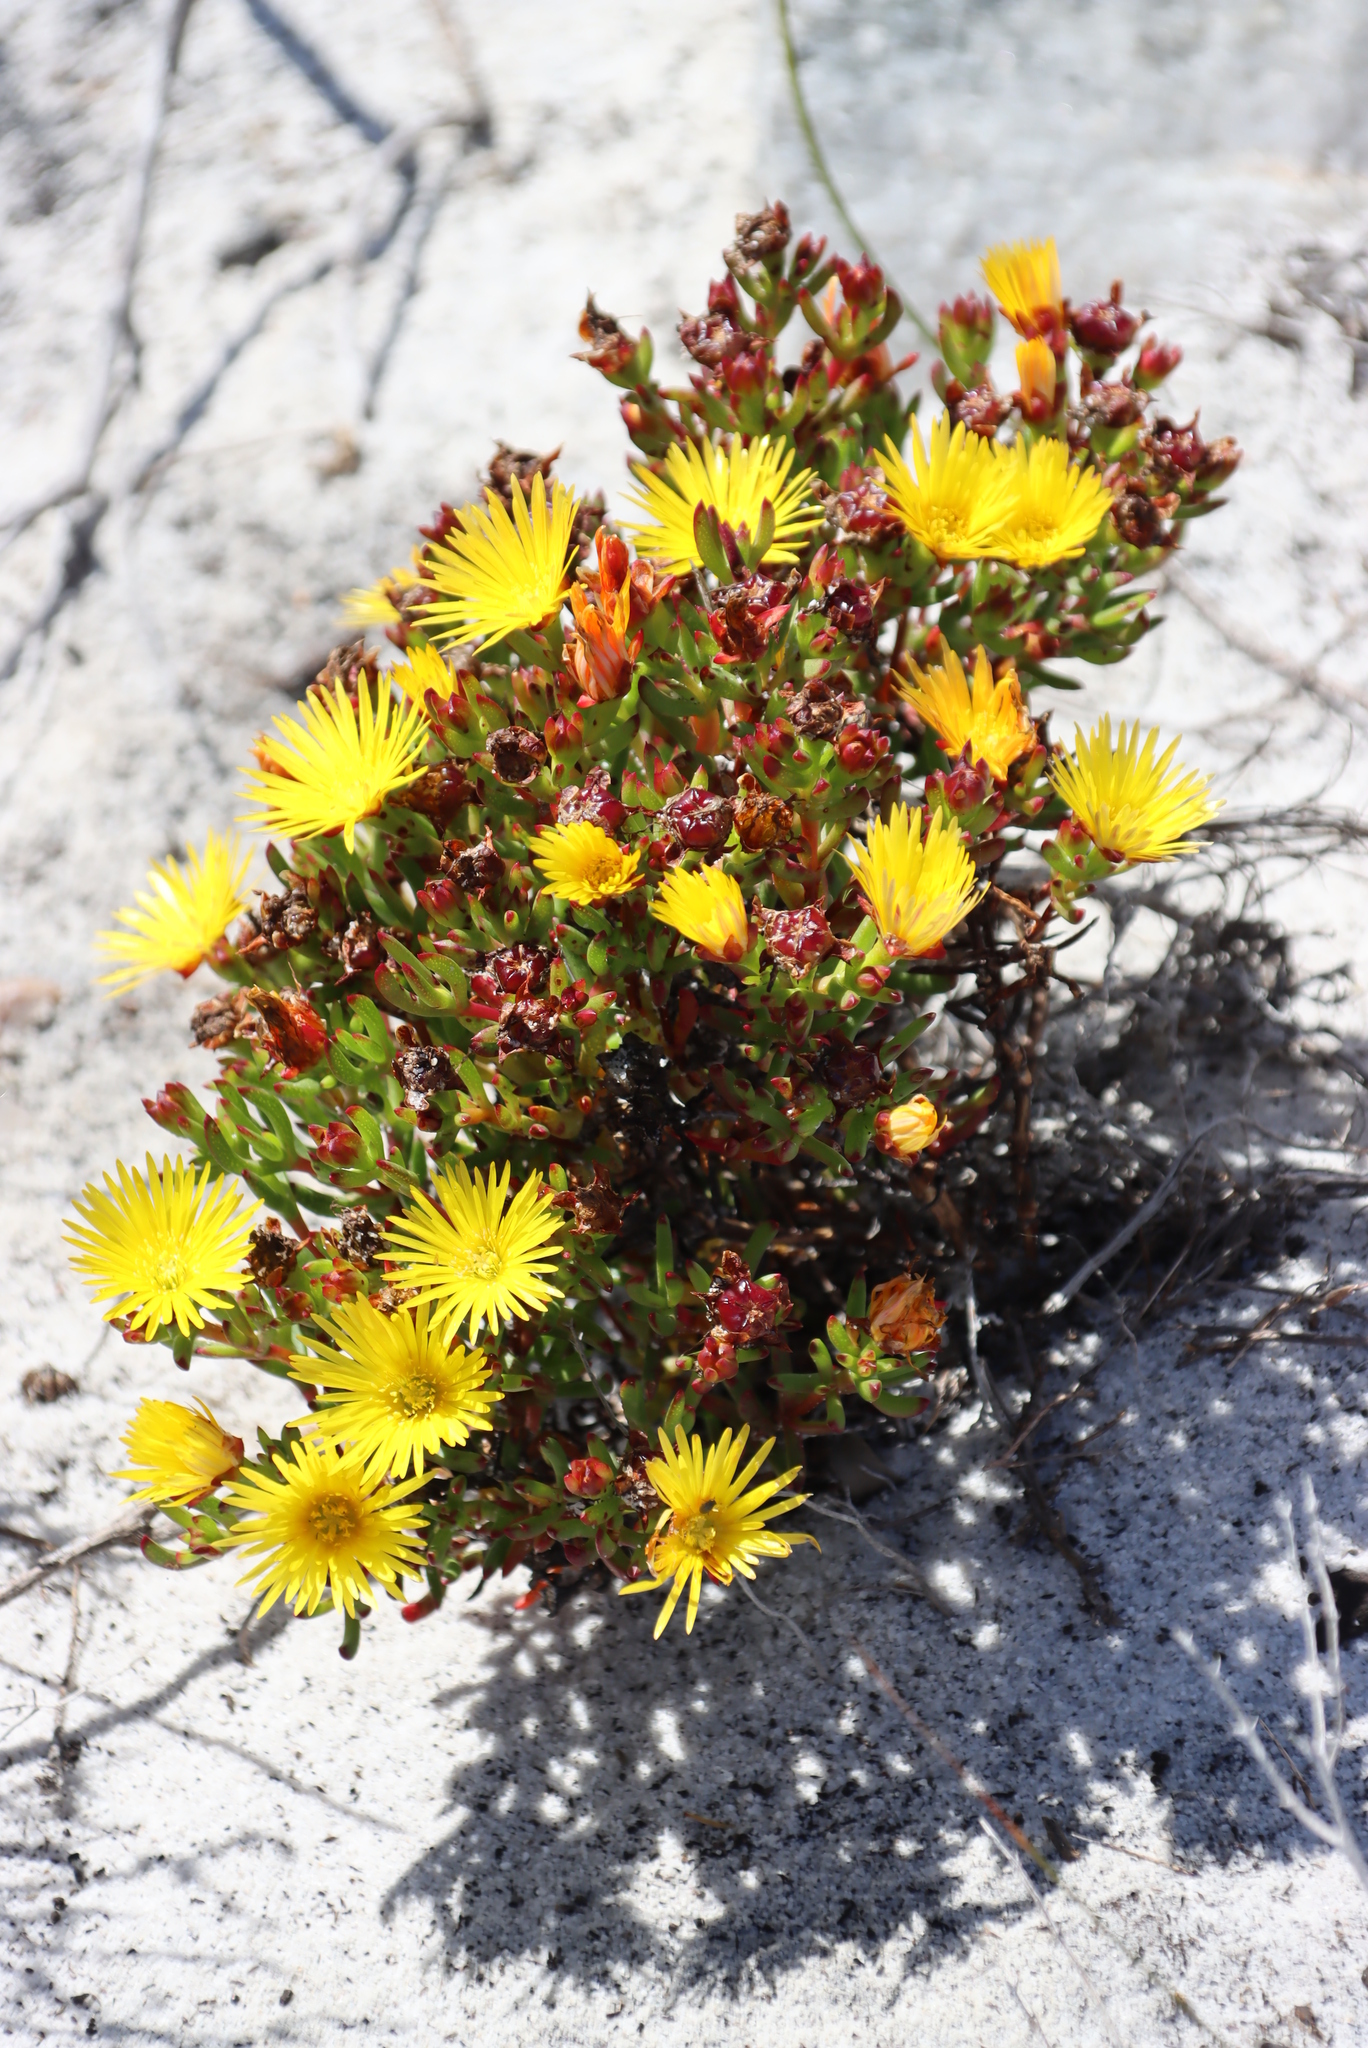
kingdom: Plantae
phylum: Tracheophyta
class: Magnoliopsida
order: Caryophyllales
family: Aizoaceae
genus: Lampranthus
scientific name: Lampranthus promontorii
